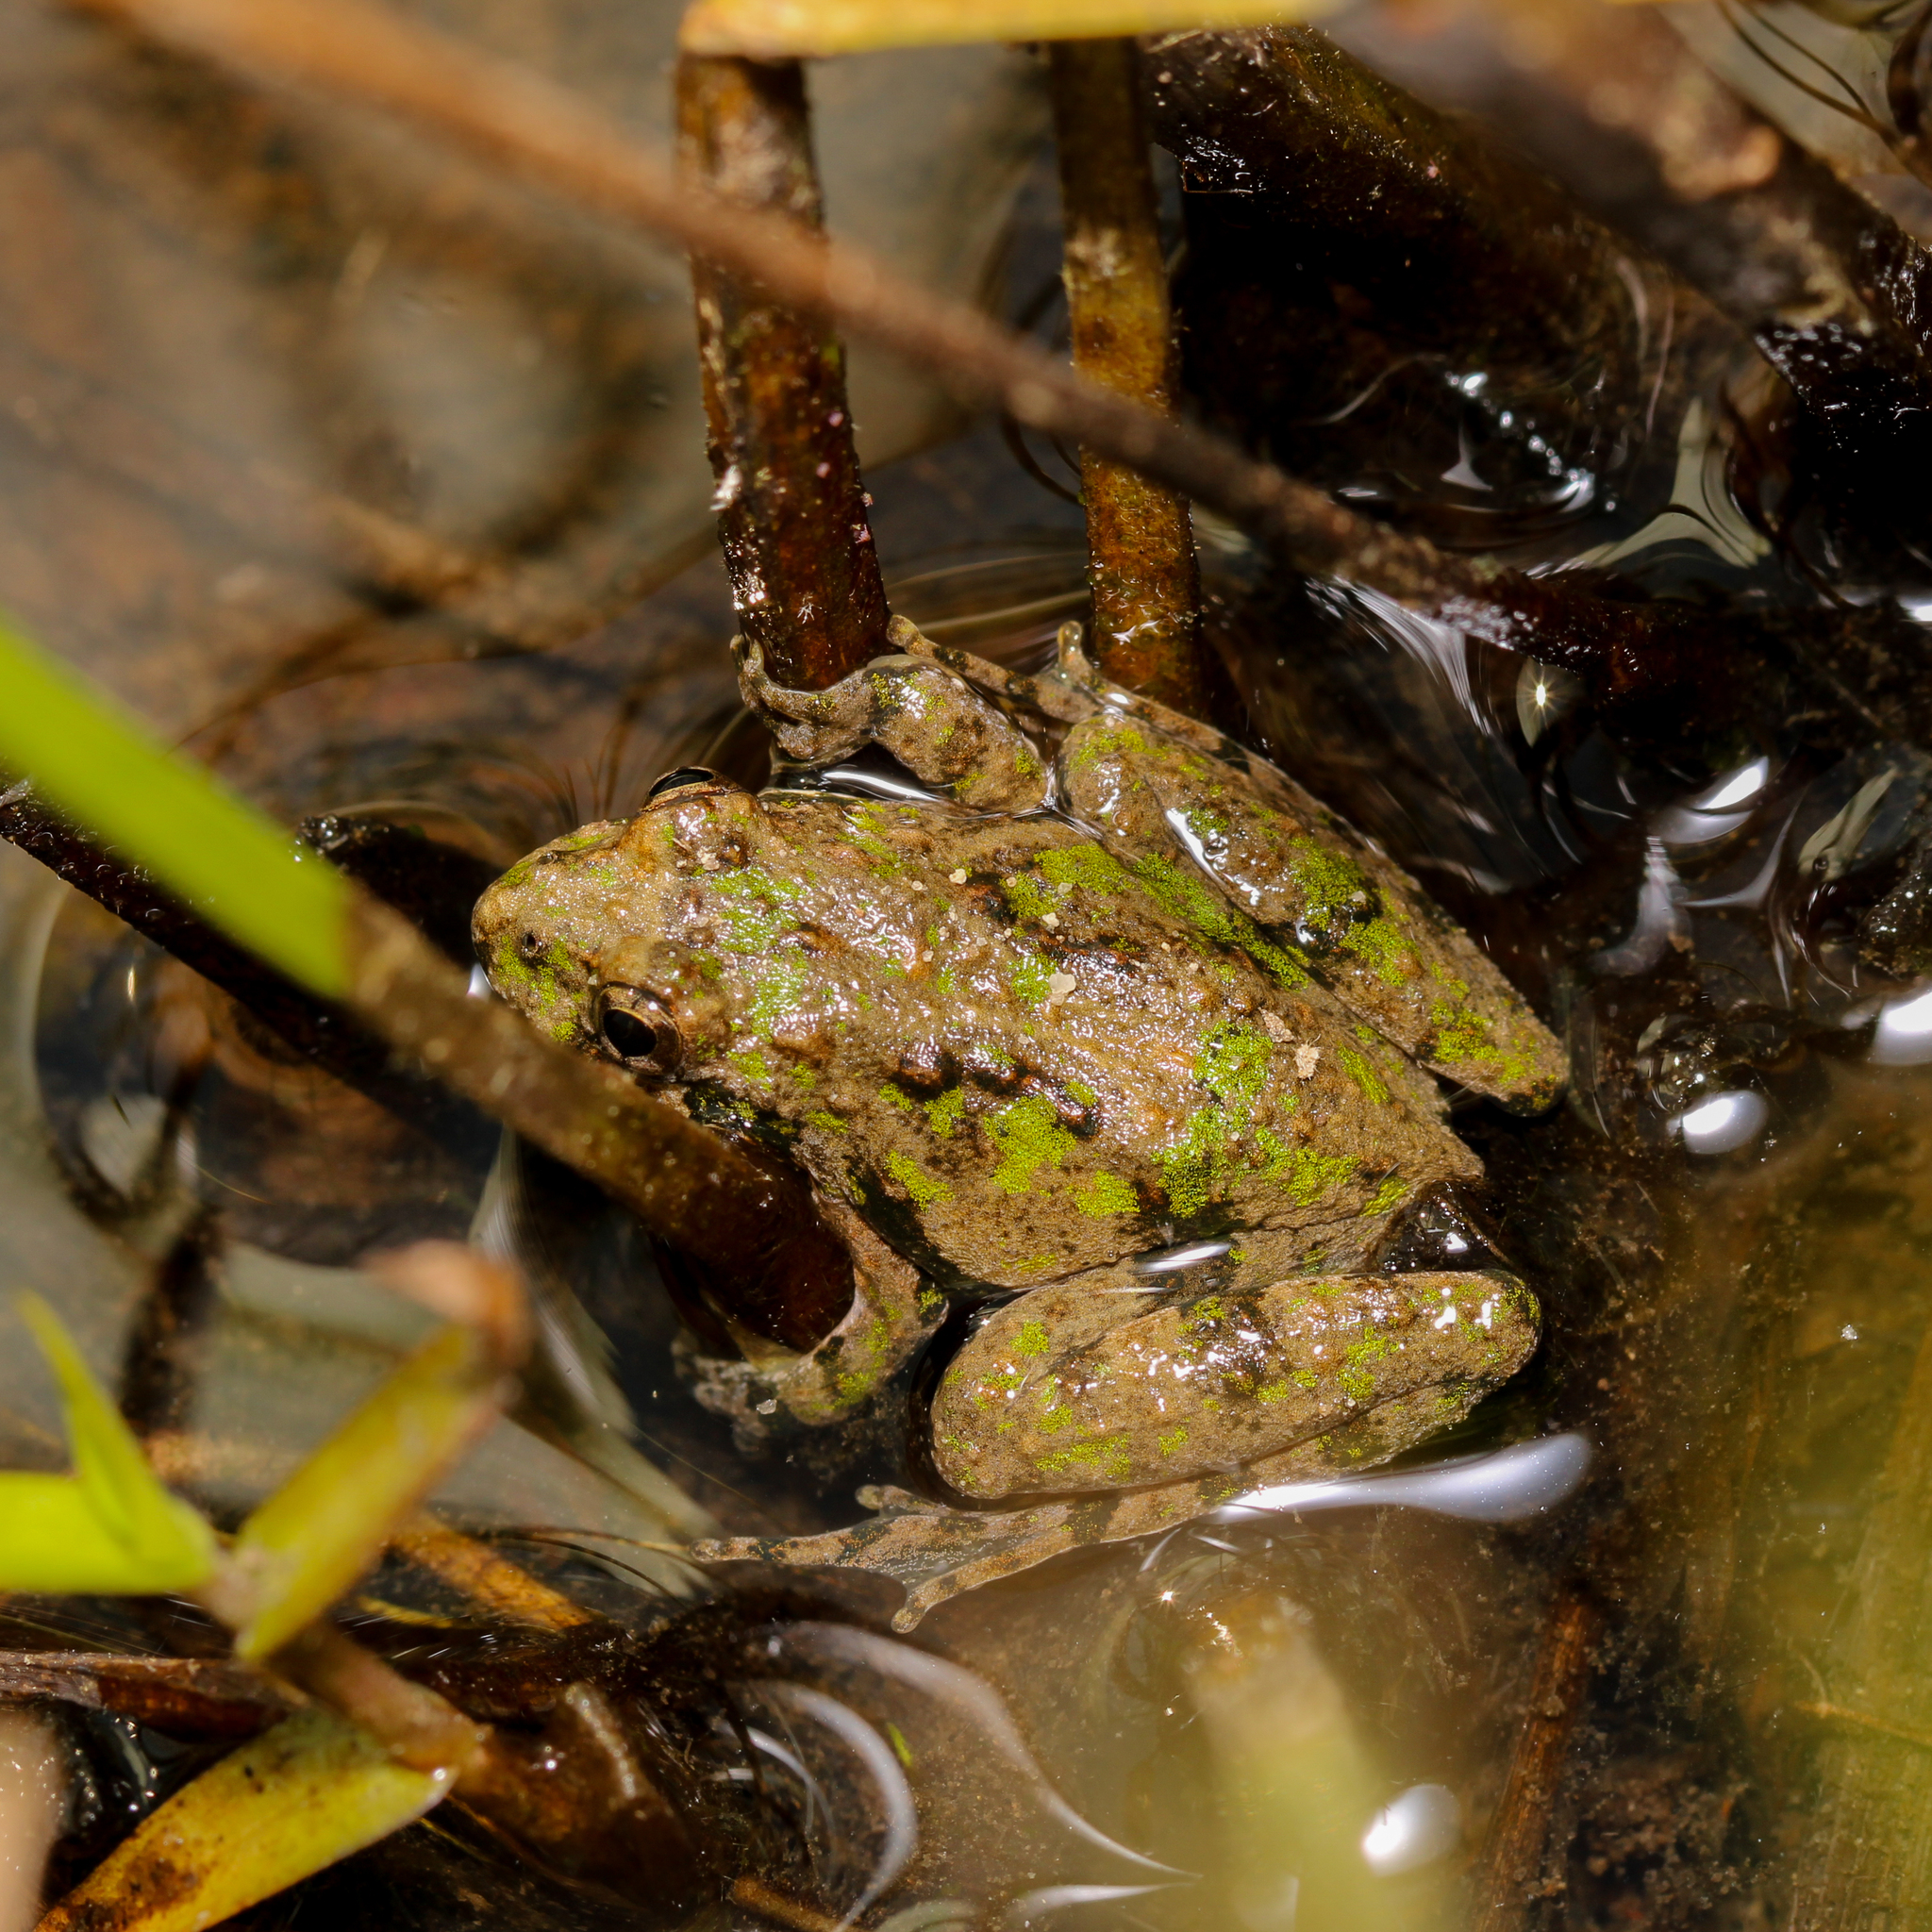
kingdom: Animalia
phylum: Chordata
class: Amphibia
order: Anura
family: Hylidae
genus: Acris
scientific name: Acris crepitans
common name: Northern cricket frog
